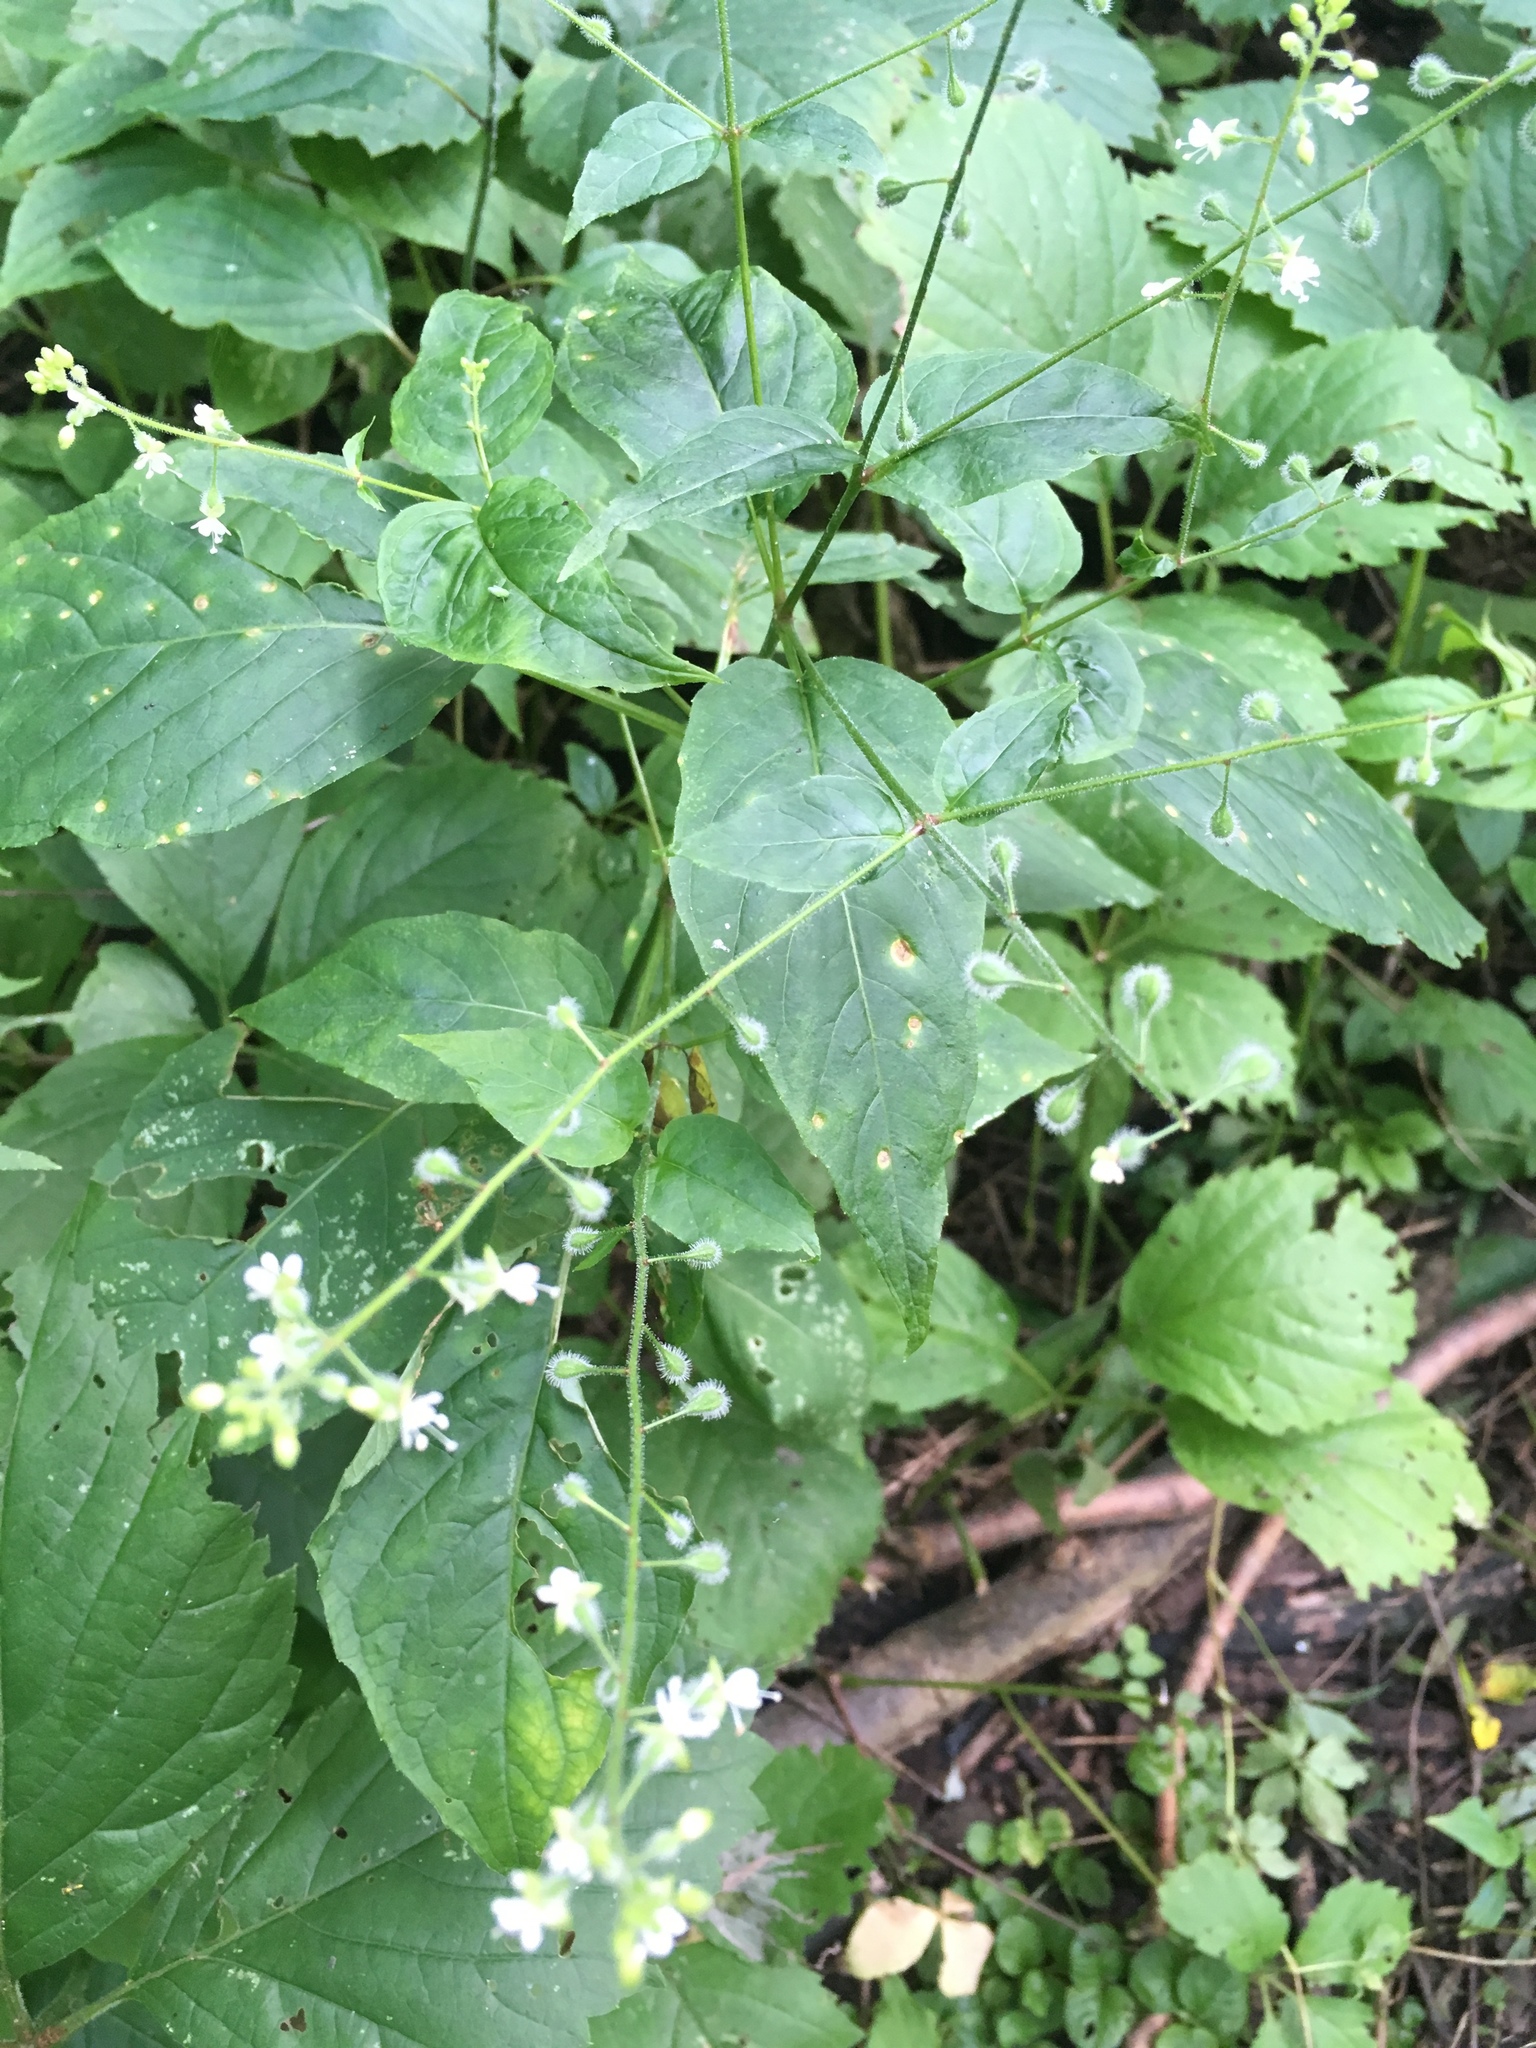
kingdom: Plantae
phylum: Tracheophyta
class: Magnoliopsida
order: Myrtales
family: Onagraceae
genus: Circaea
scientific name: Circaea canadensis
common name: Broad-leaved enchanter's nightshade
